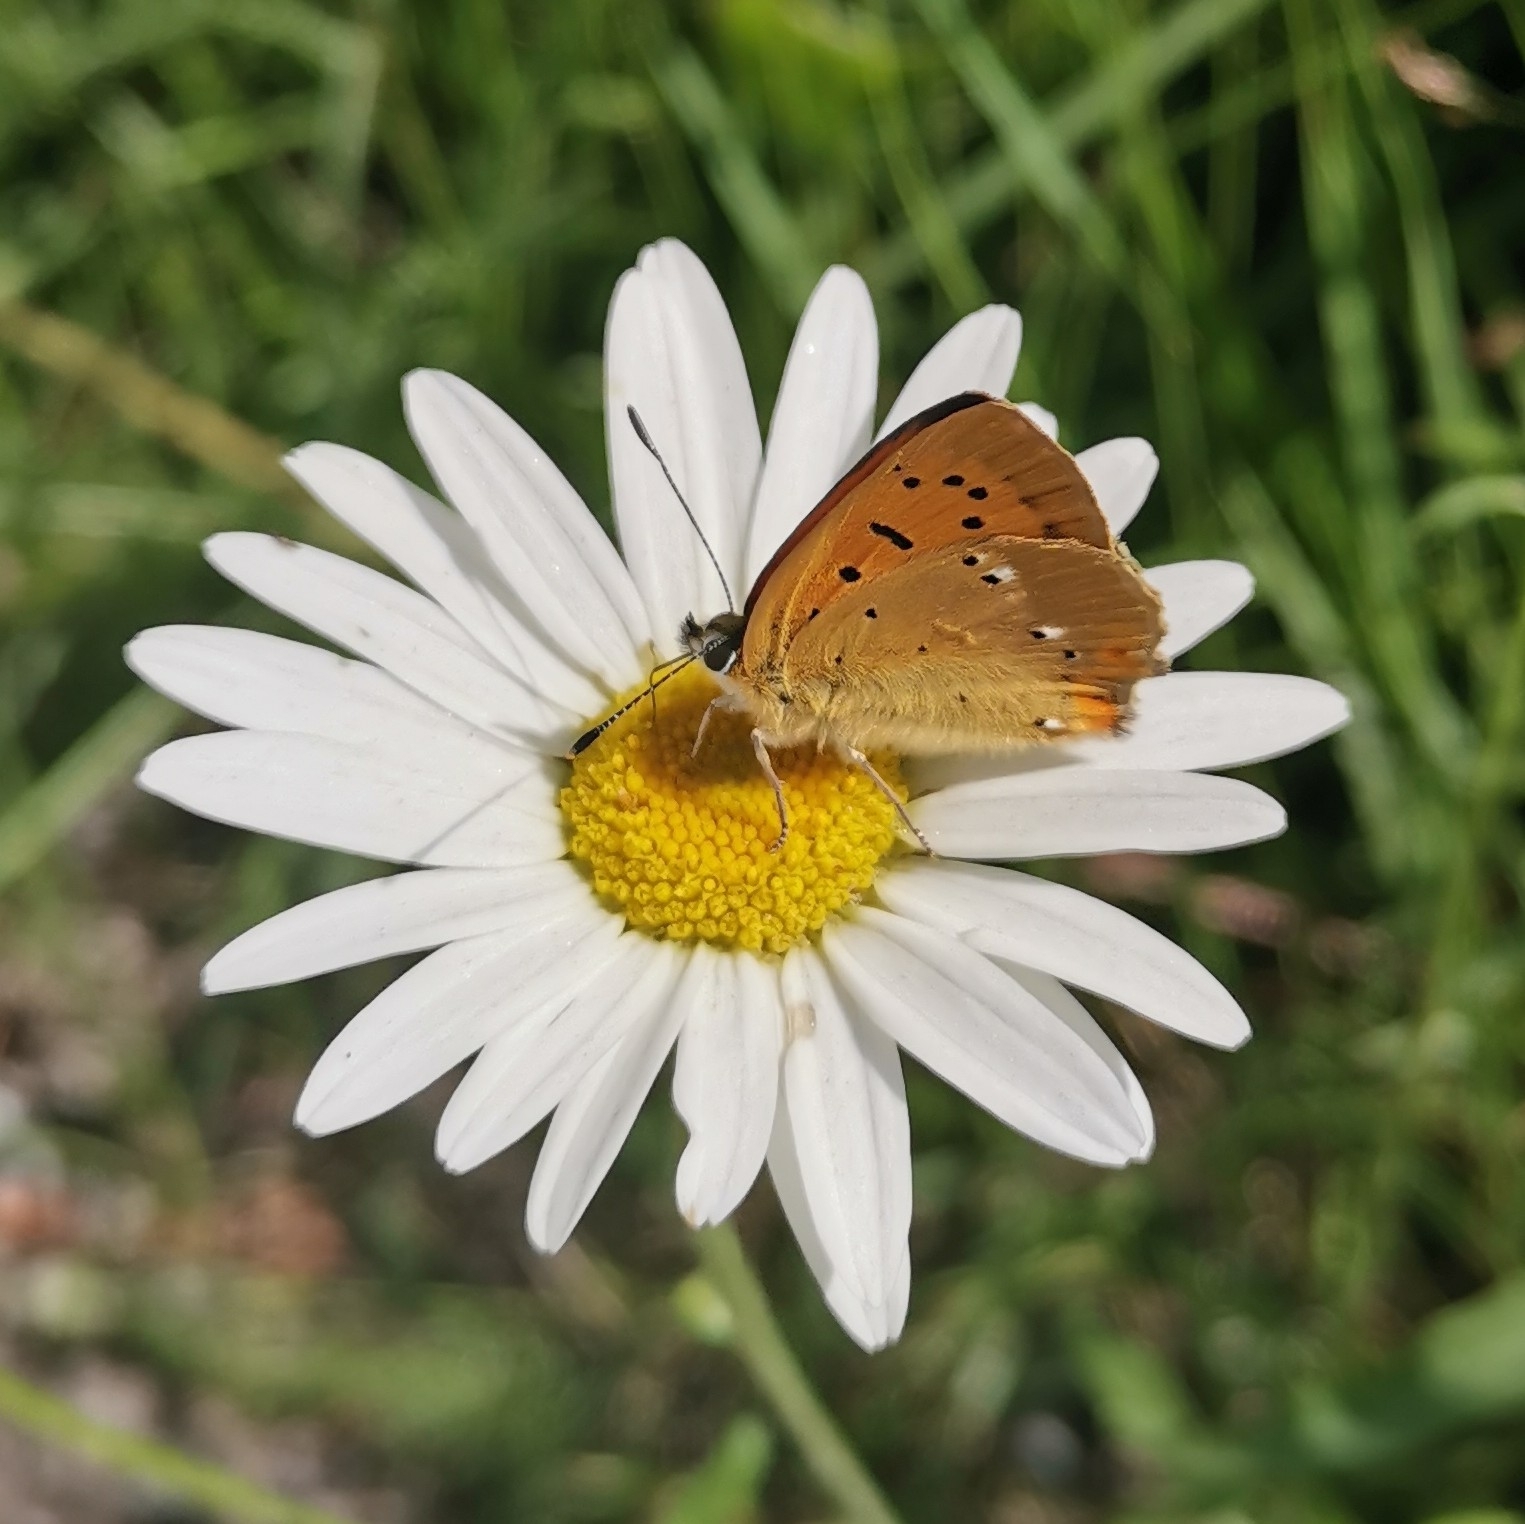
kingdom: Animalia
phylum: Arthropoda
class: Insecta
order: Lepidoptera
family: Lycaenidae
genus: Lycaena
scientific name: Lycaena virgaureae
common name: Scarce copper
